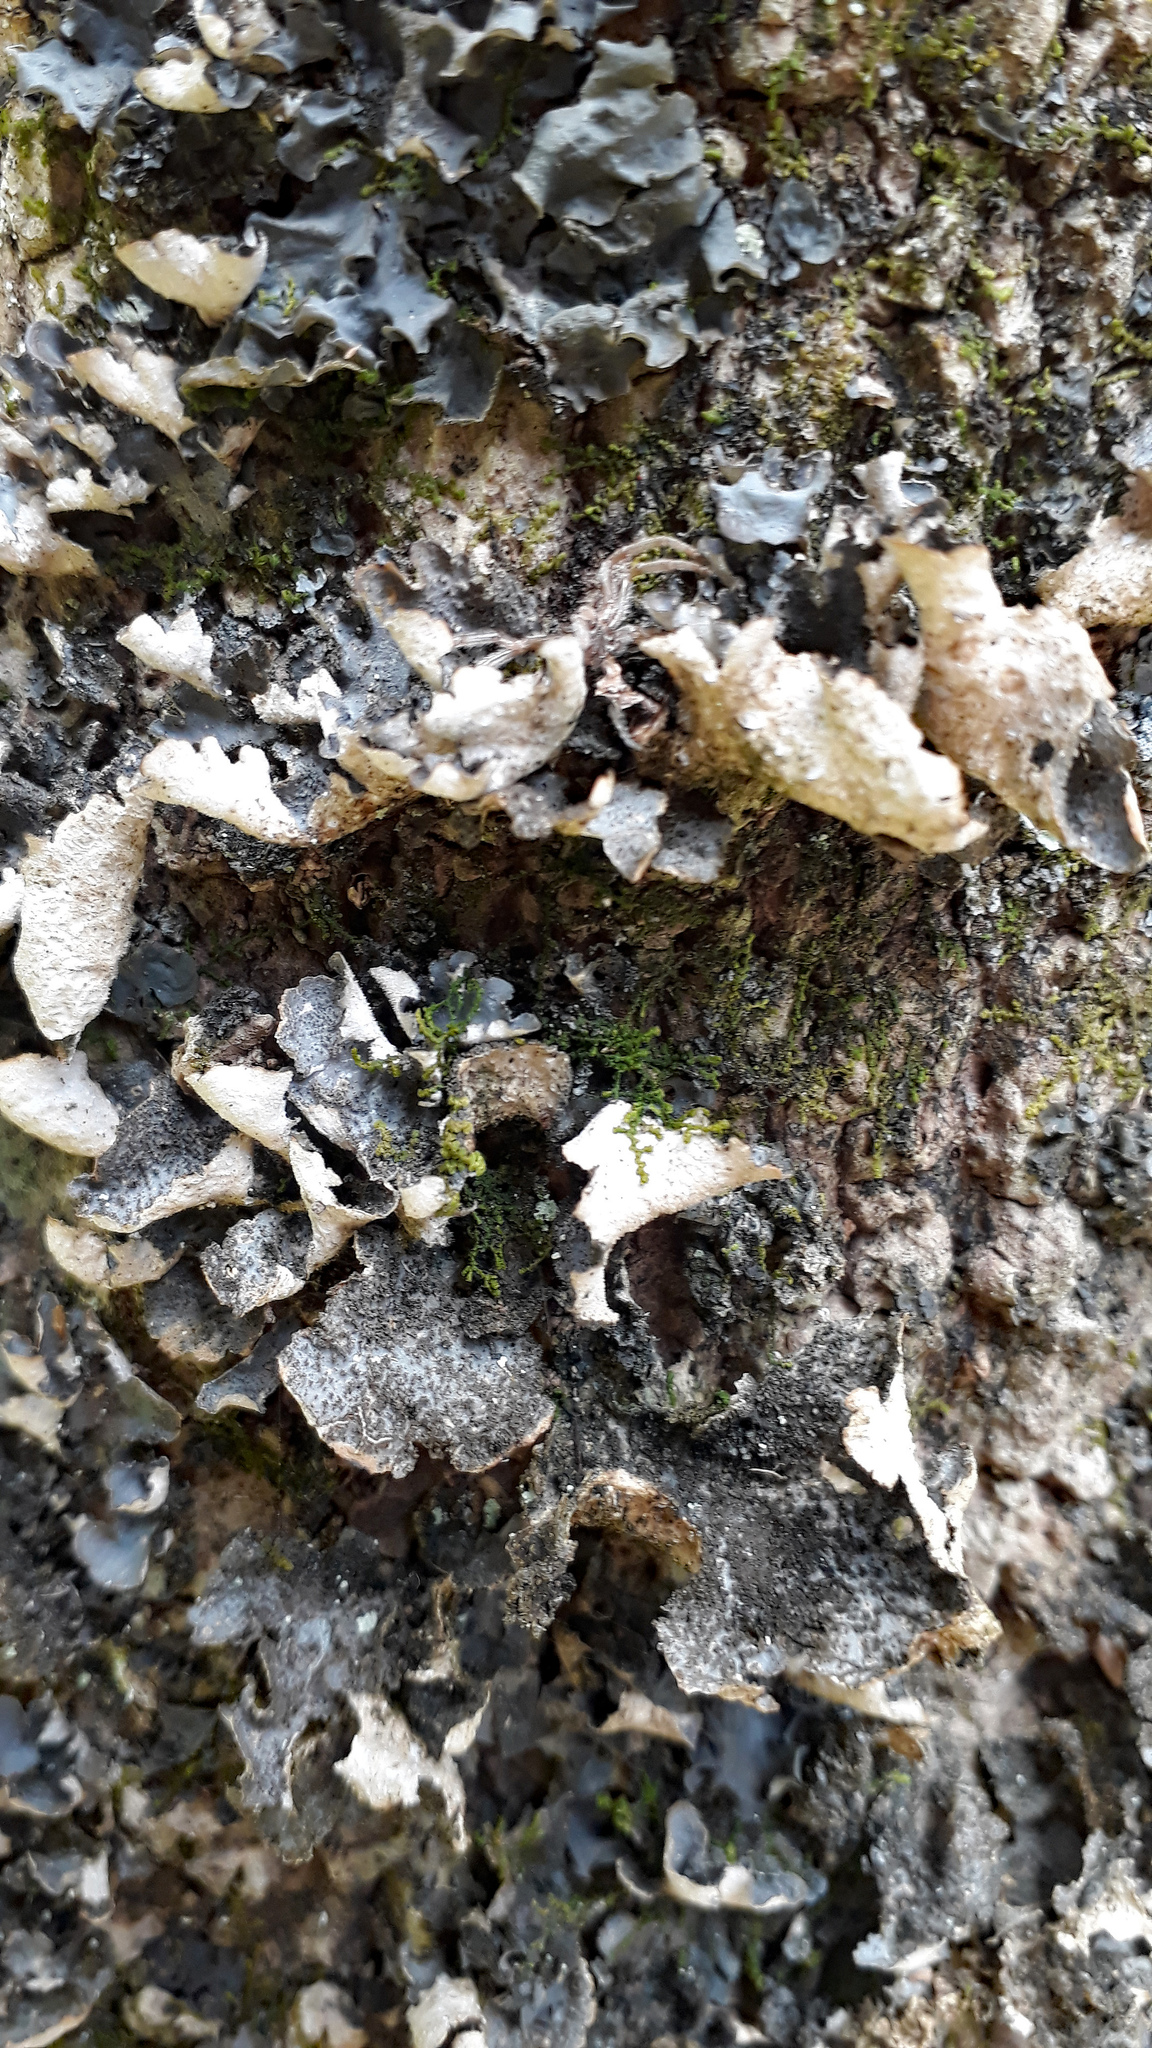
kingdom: Fungi
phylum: Ascomycota
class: Lecanoromycetes
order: Peltigerales
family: Lobariaceae
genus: Sticta
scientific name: Sticta fuliginosa
